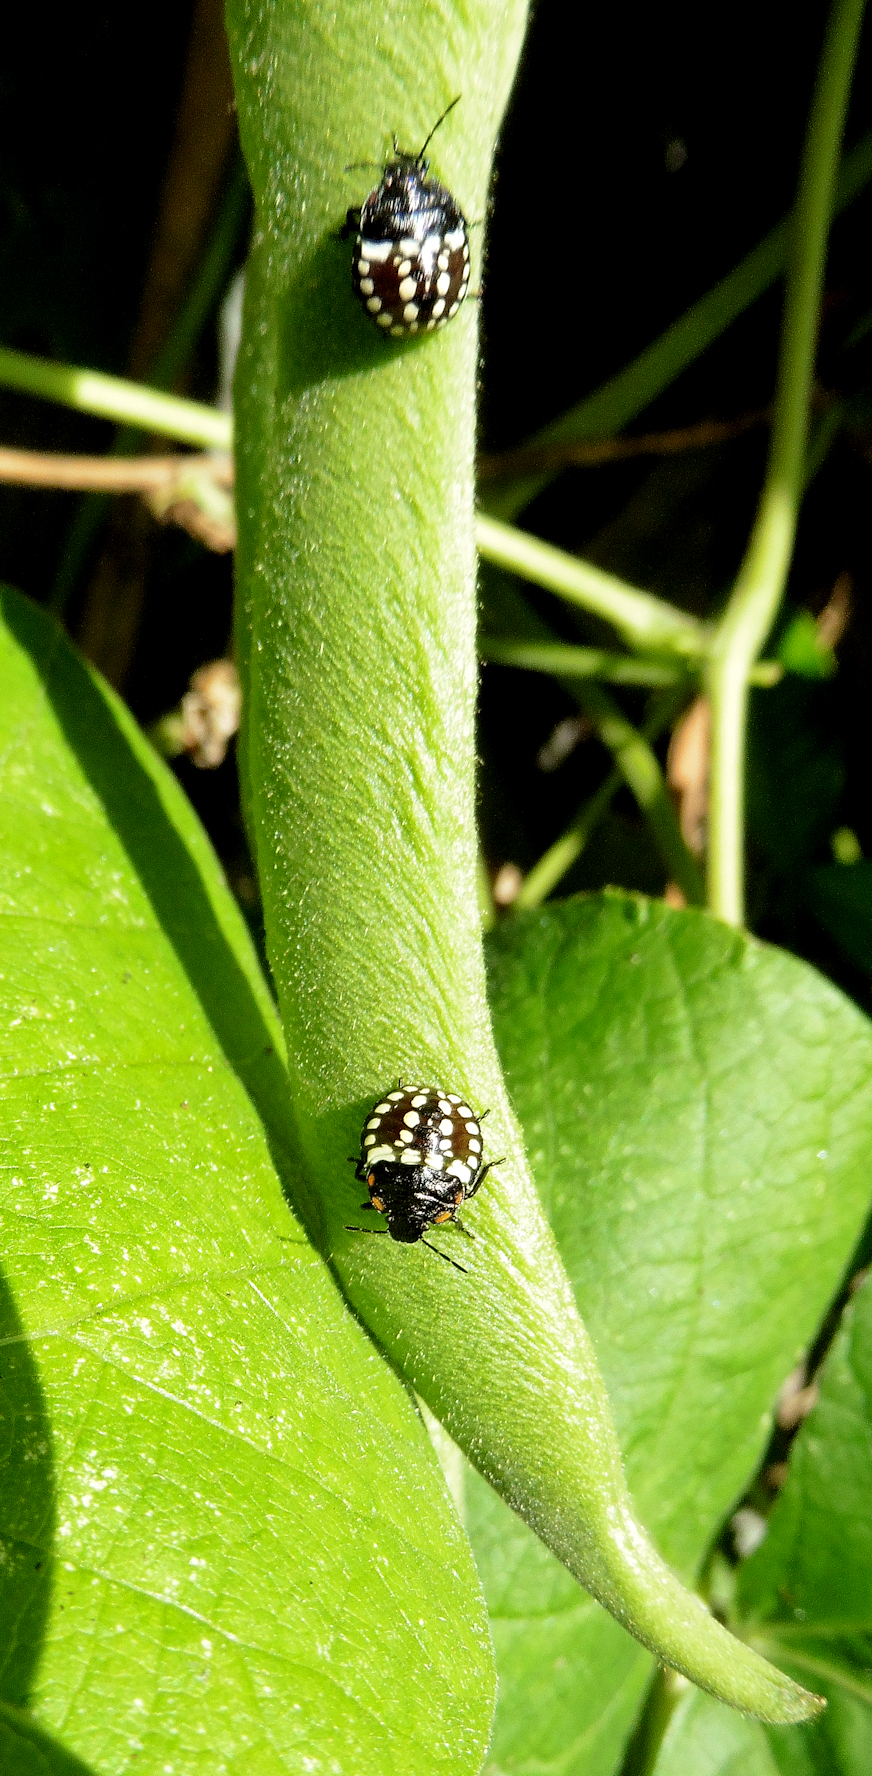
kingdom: Animalia
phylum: Arthropoda
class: Insecta
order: Hemiptera
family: Pentatomidae
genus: Nezara
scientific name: Nezara viridula
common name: Southern green stink bug
